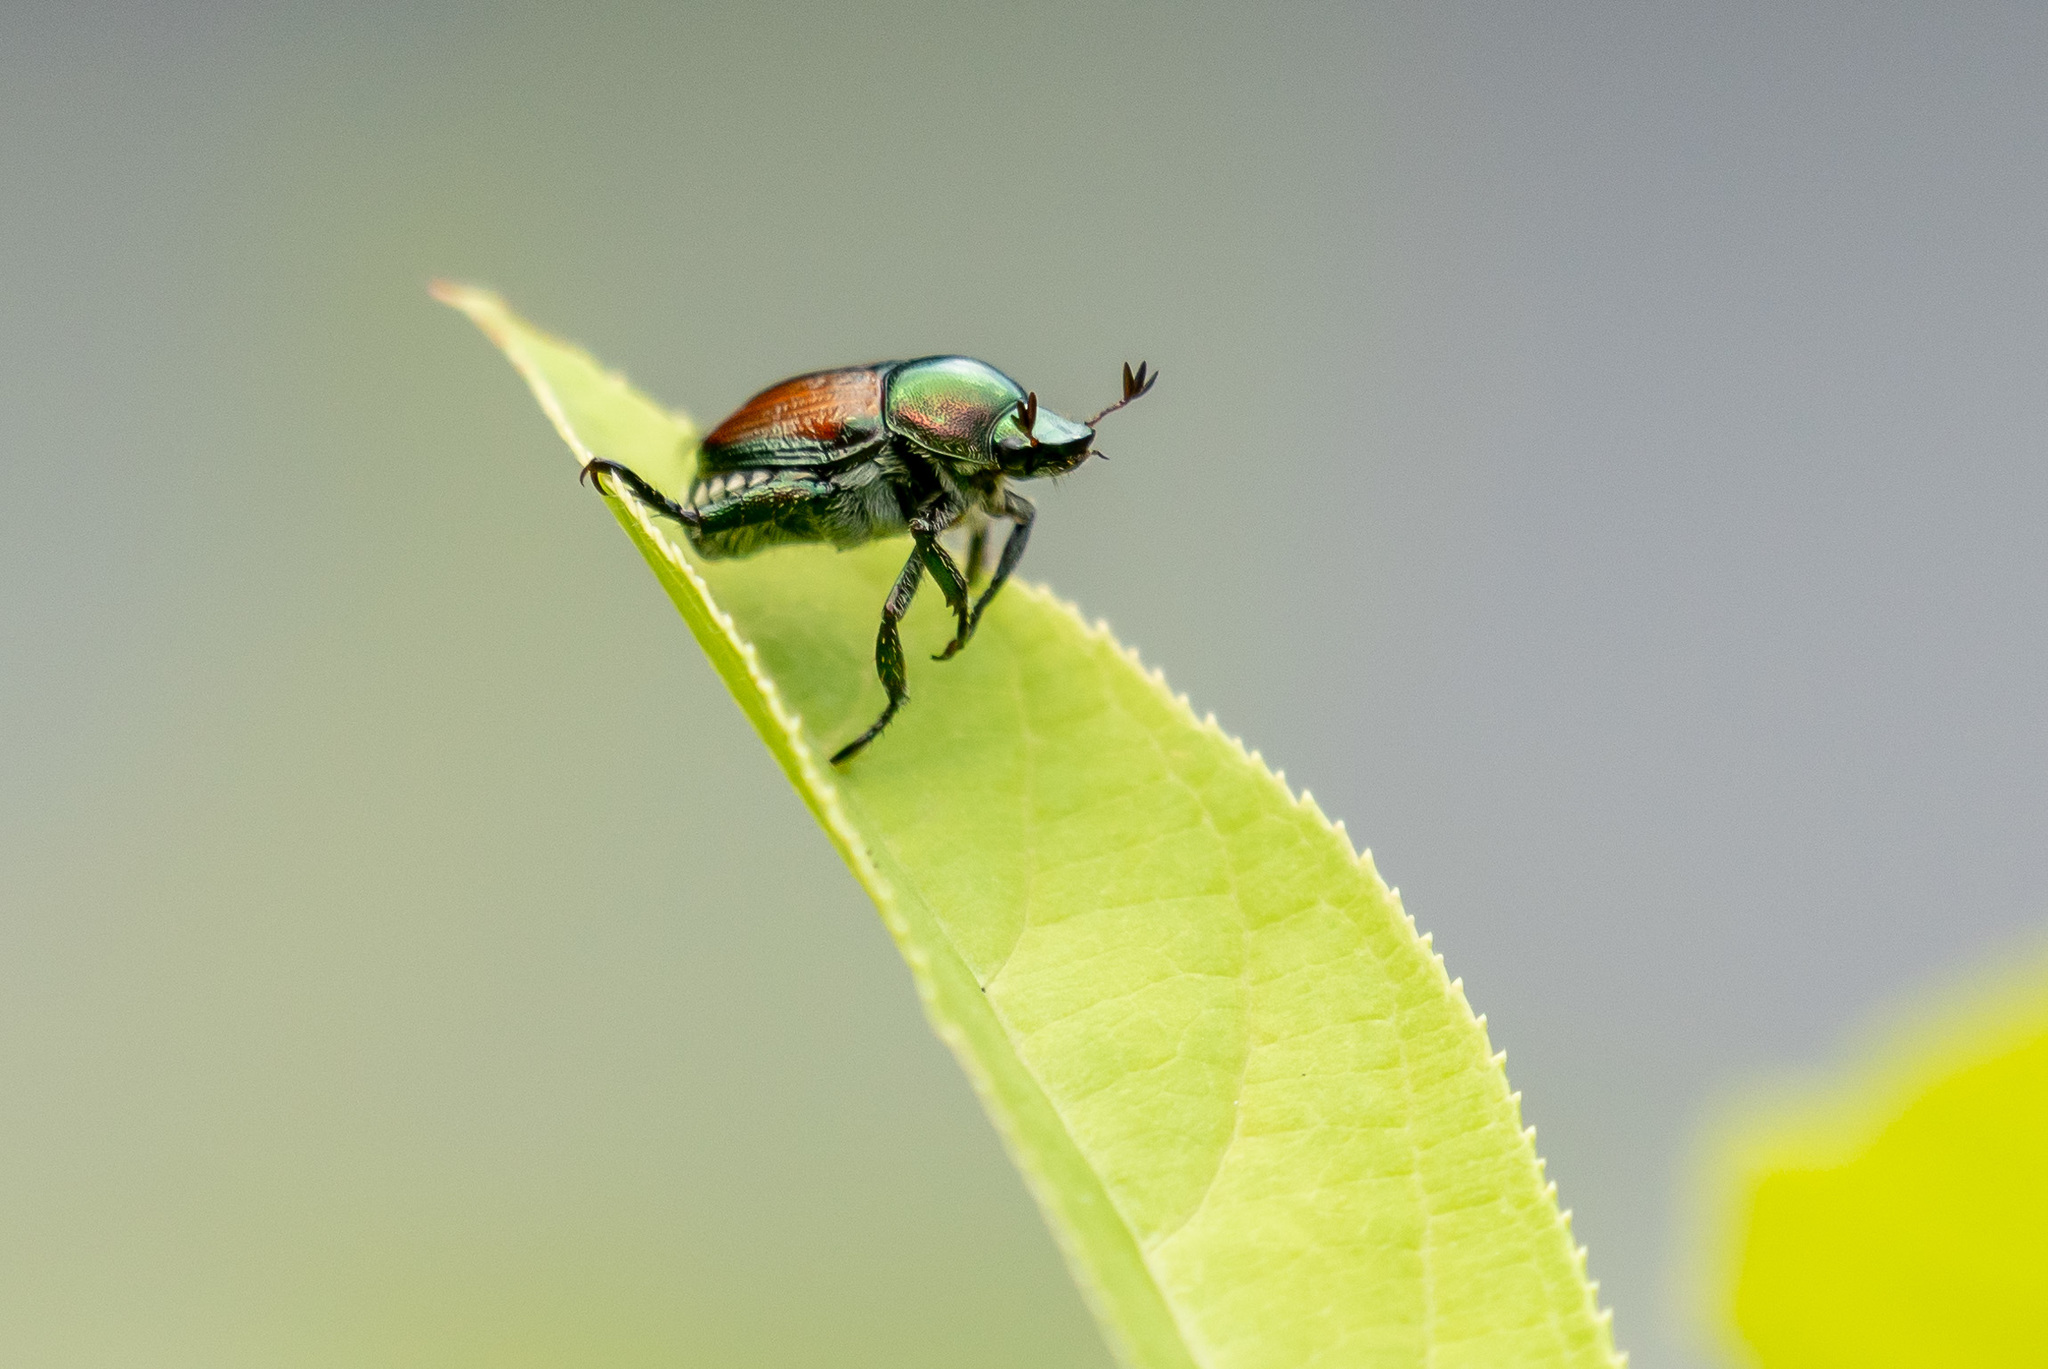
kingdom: Animalia
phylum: Arthropoda
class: Insecta
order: Coleoptera
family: Scarabaeidae
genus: Popillia
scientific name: Popillia japonica
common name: Japanese beetle
